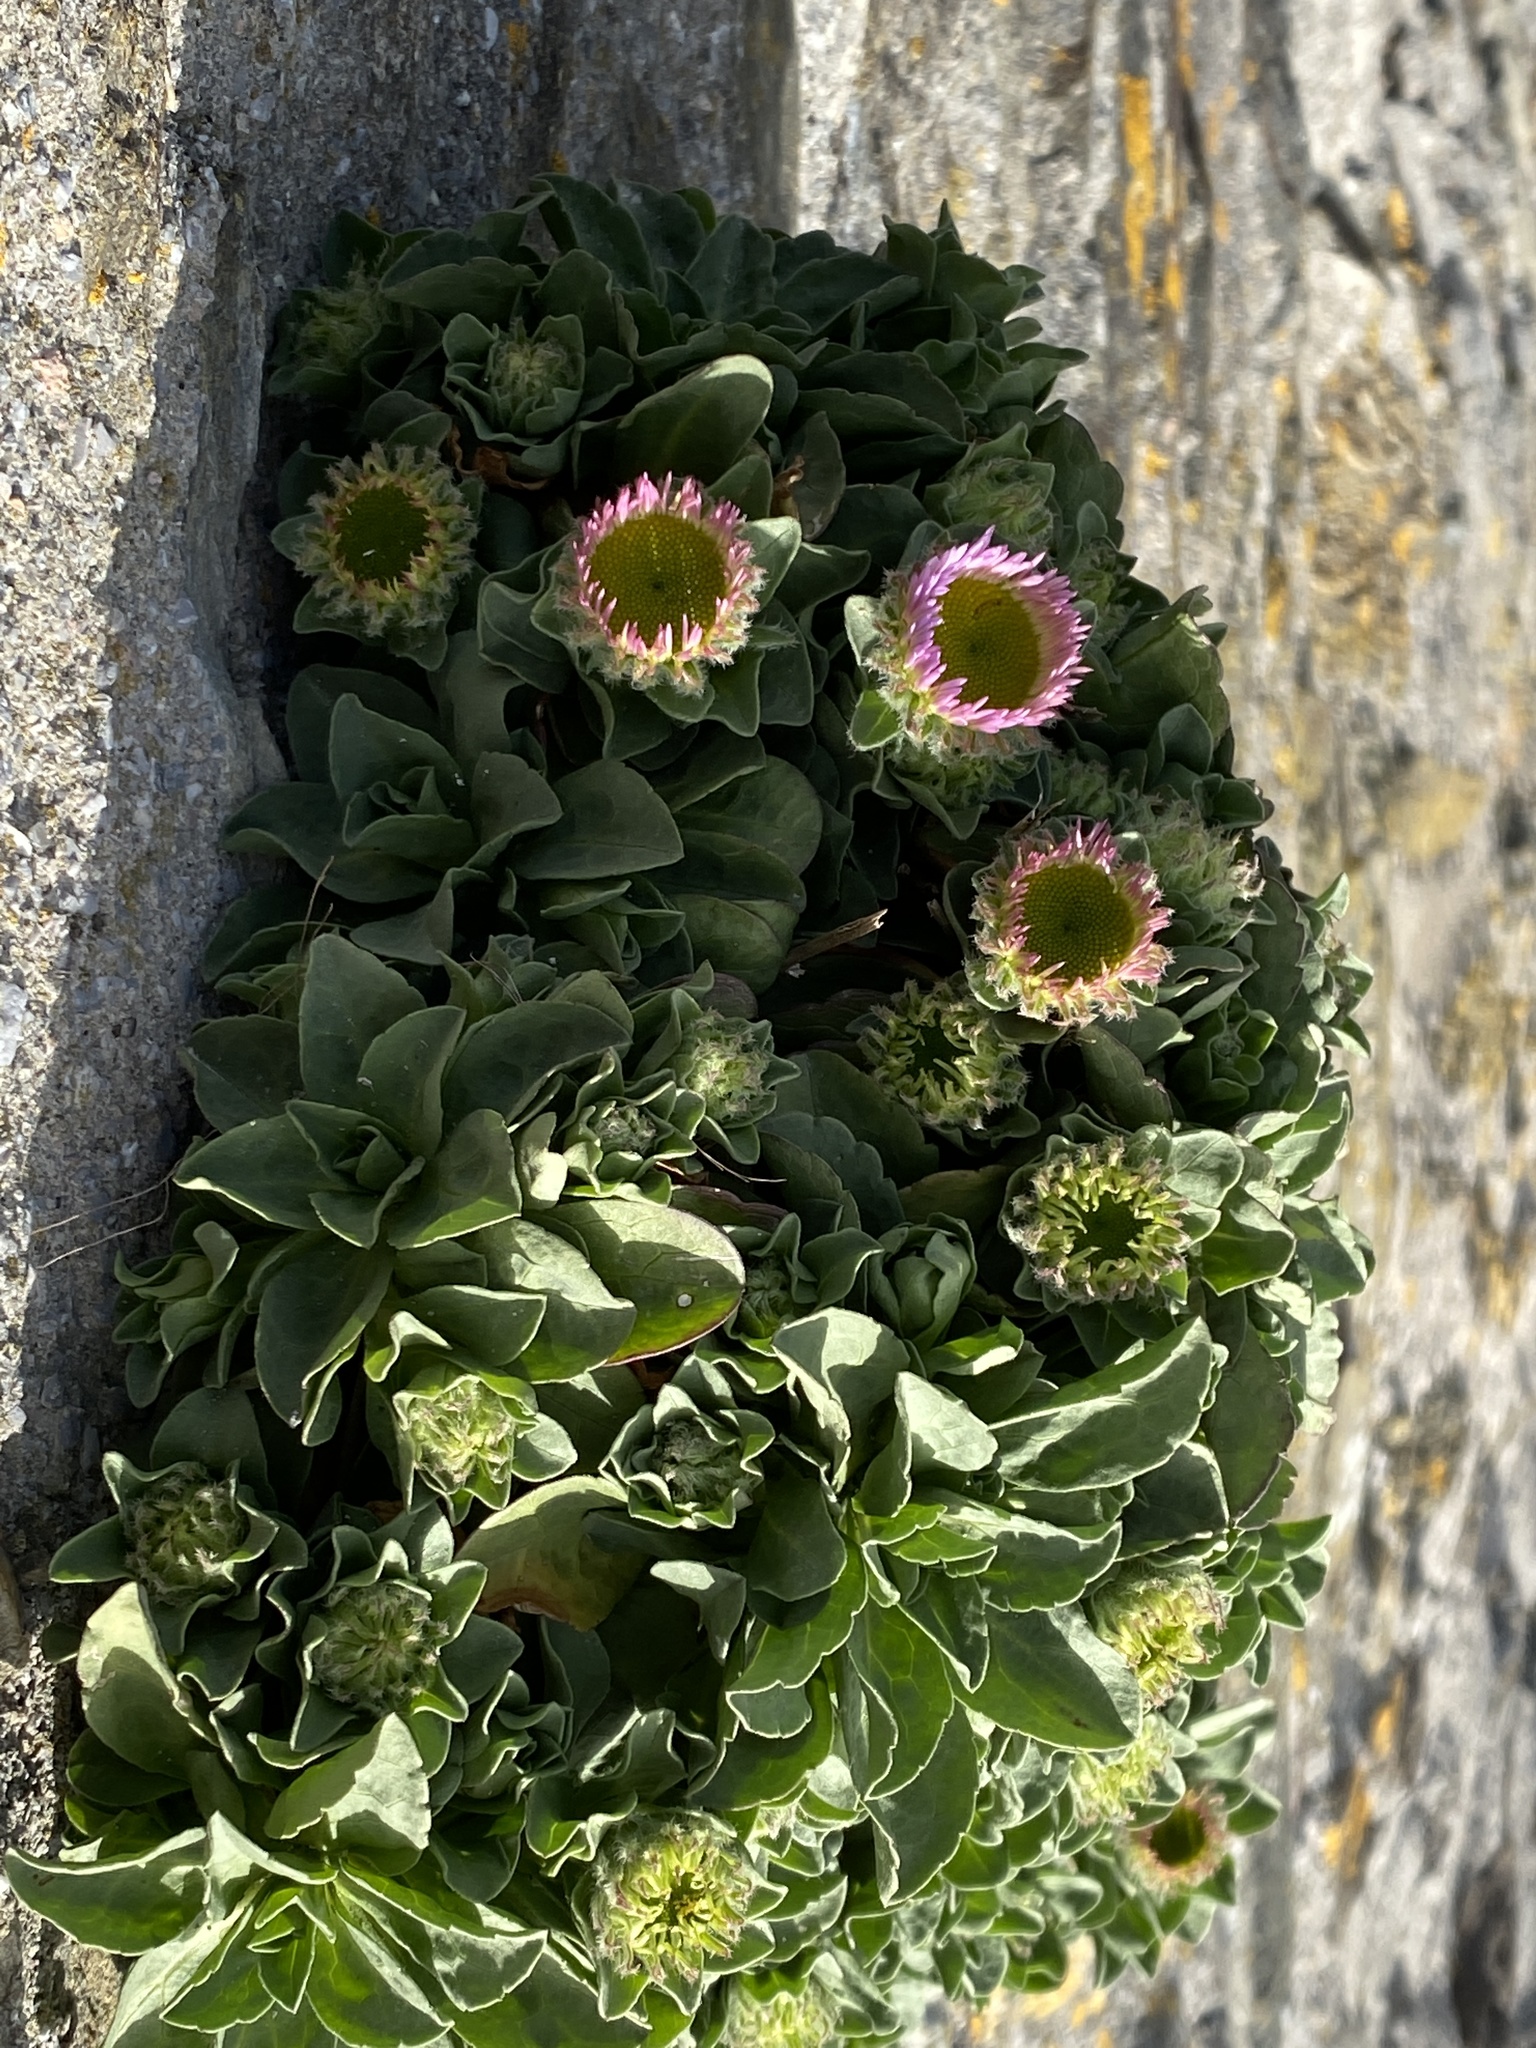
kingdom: Plantae
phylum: Tracheophyta
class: Magnoliopsida
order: Asterales
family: Asteraceae
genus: Erigeron
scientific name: Erigeron glaucus
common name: Seaside daisy
